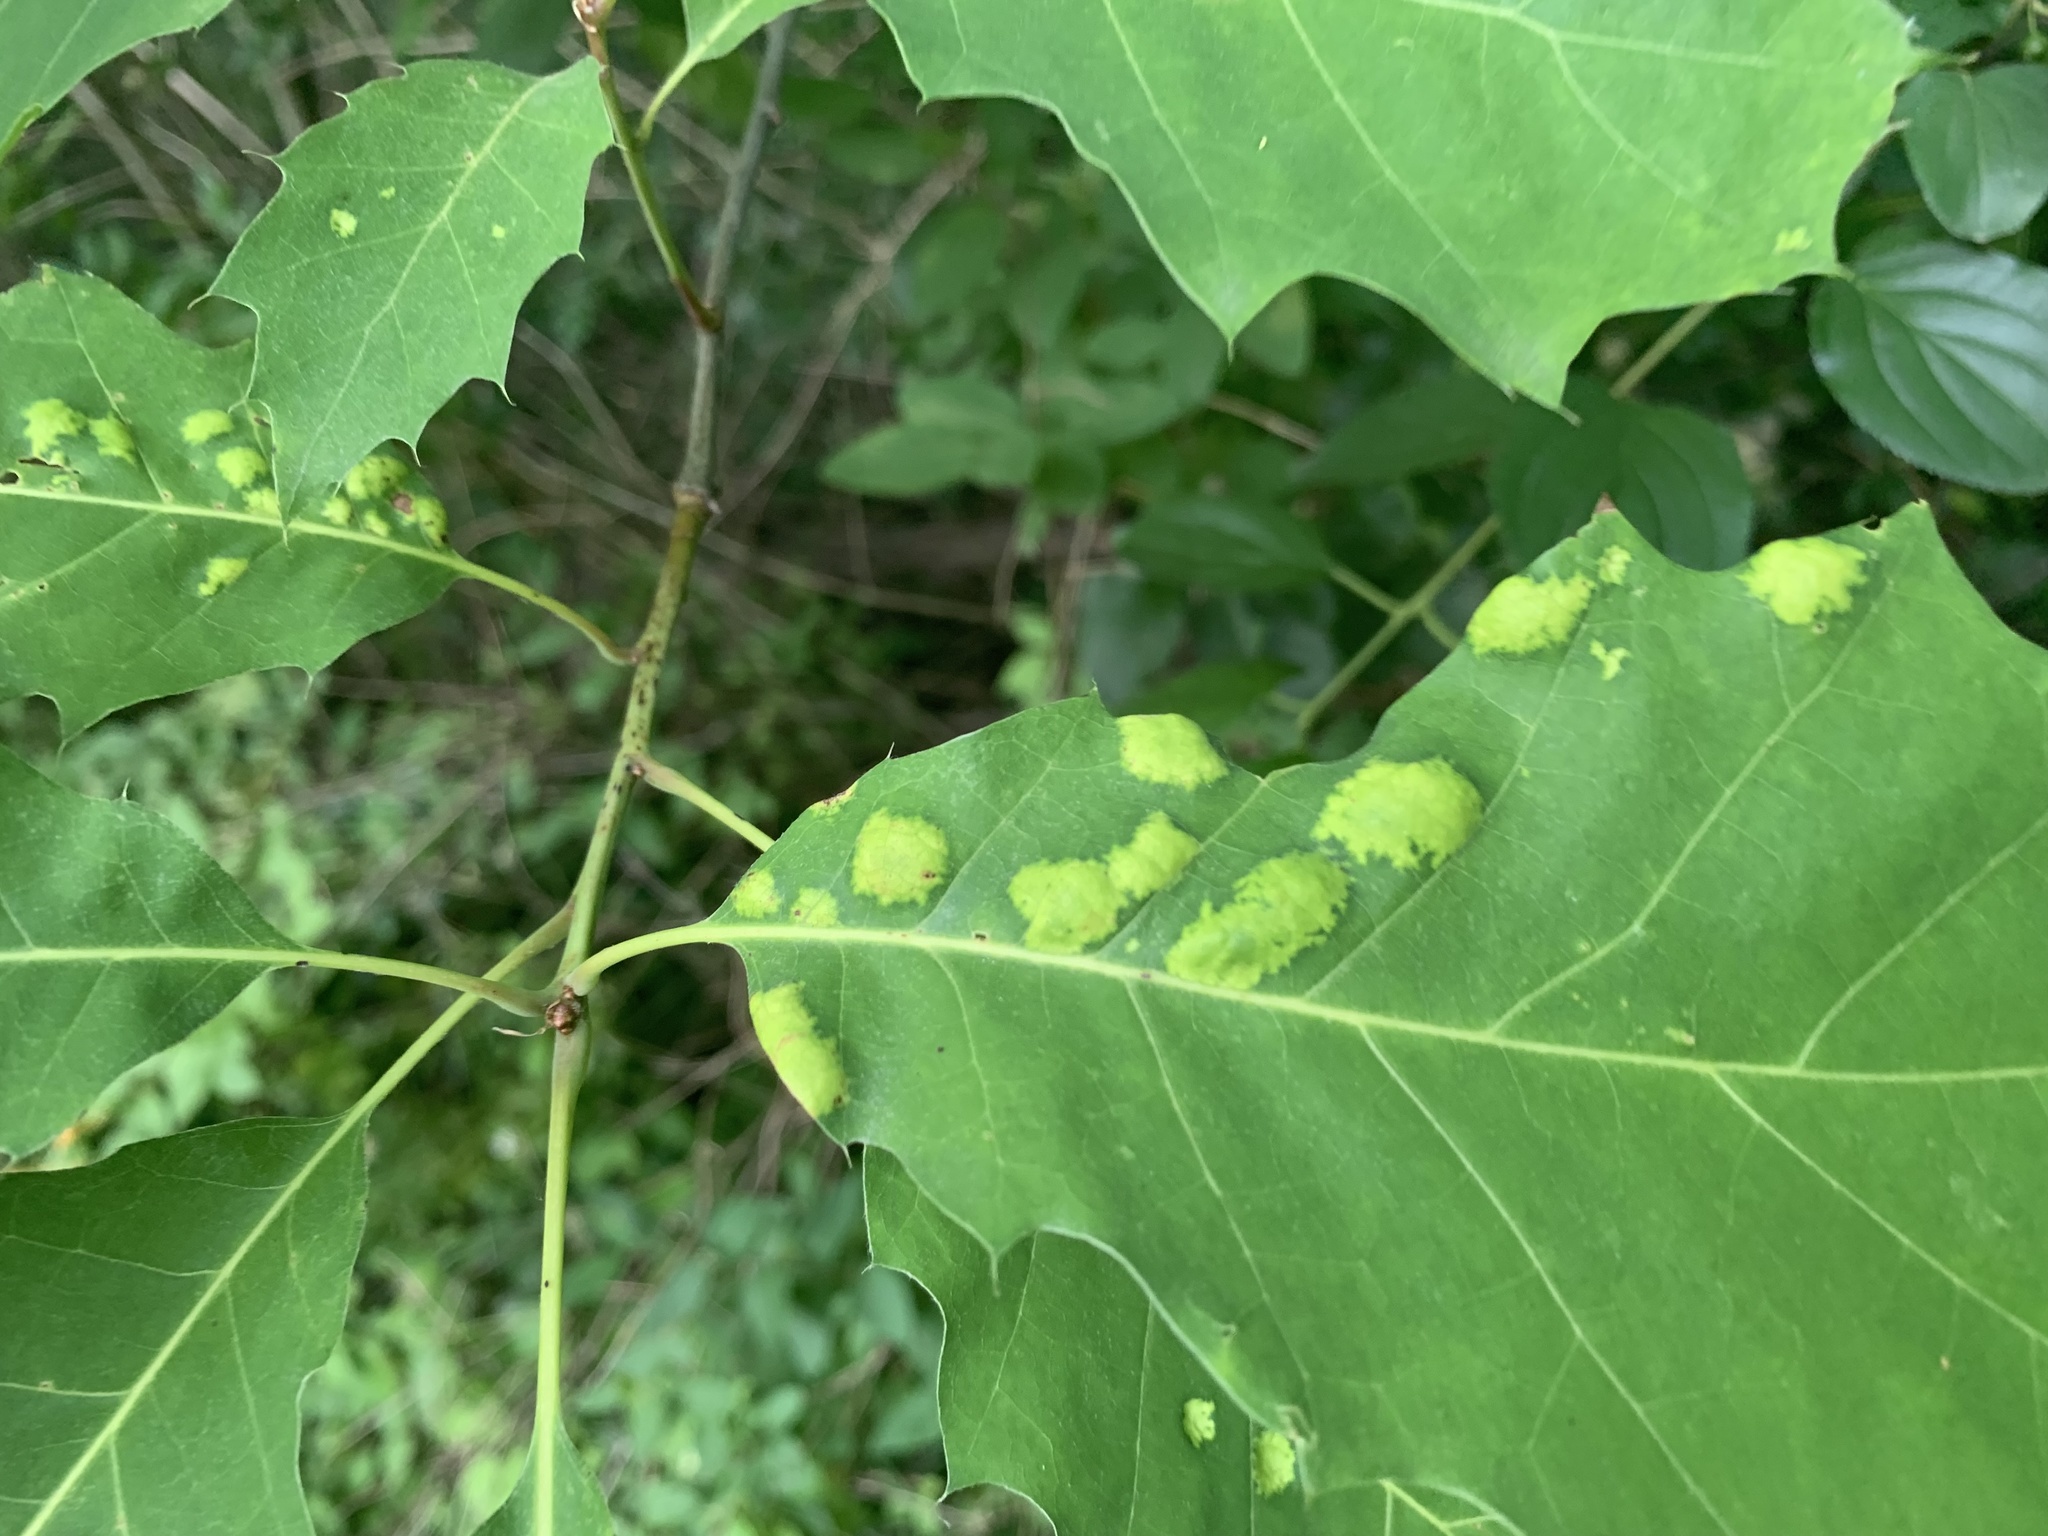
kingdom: Fungi
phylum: Ascomycota
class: Taphrinomycetes
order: Taphrinales
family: Taphrinaceae
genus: Taphrina
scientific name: Taphrina caerulescens
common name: Oak leaf blister
